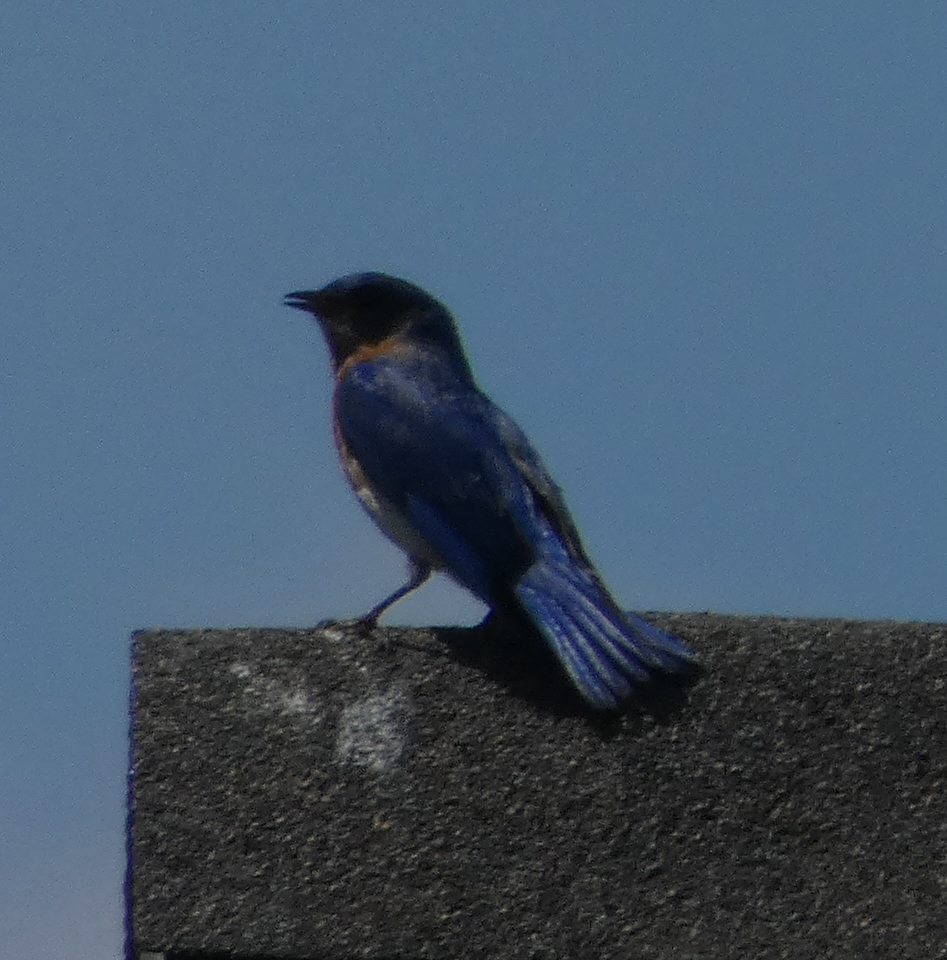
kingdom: Animalia
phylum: Chordata
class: Aves
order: Passeriformes
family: Turdidae
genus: Sialia
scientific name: Sialia sialis
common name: Eastern bluebird
